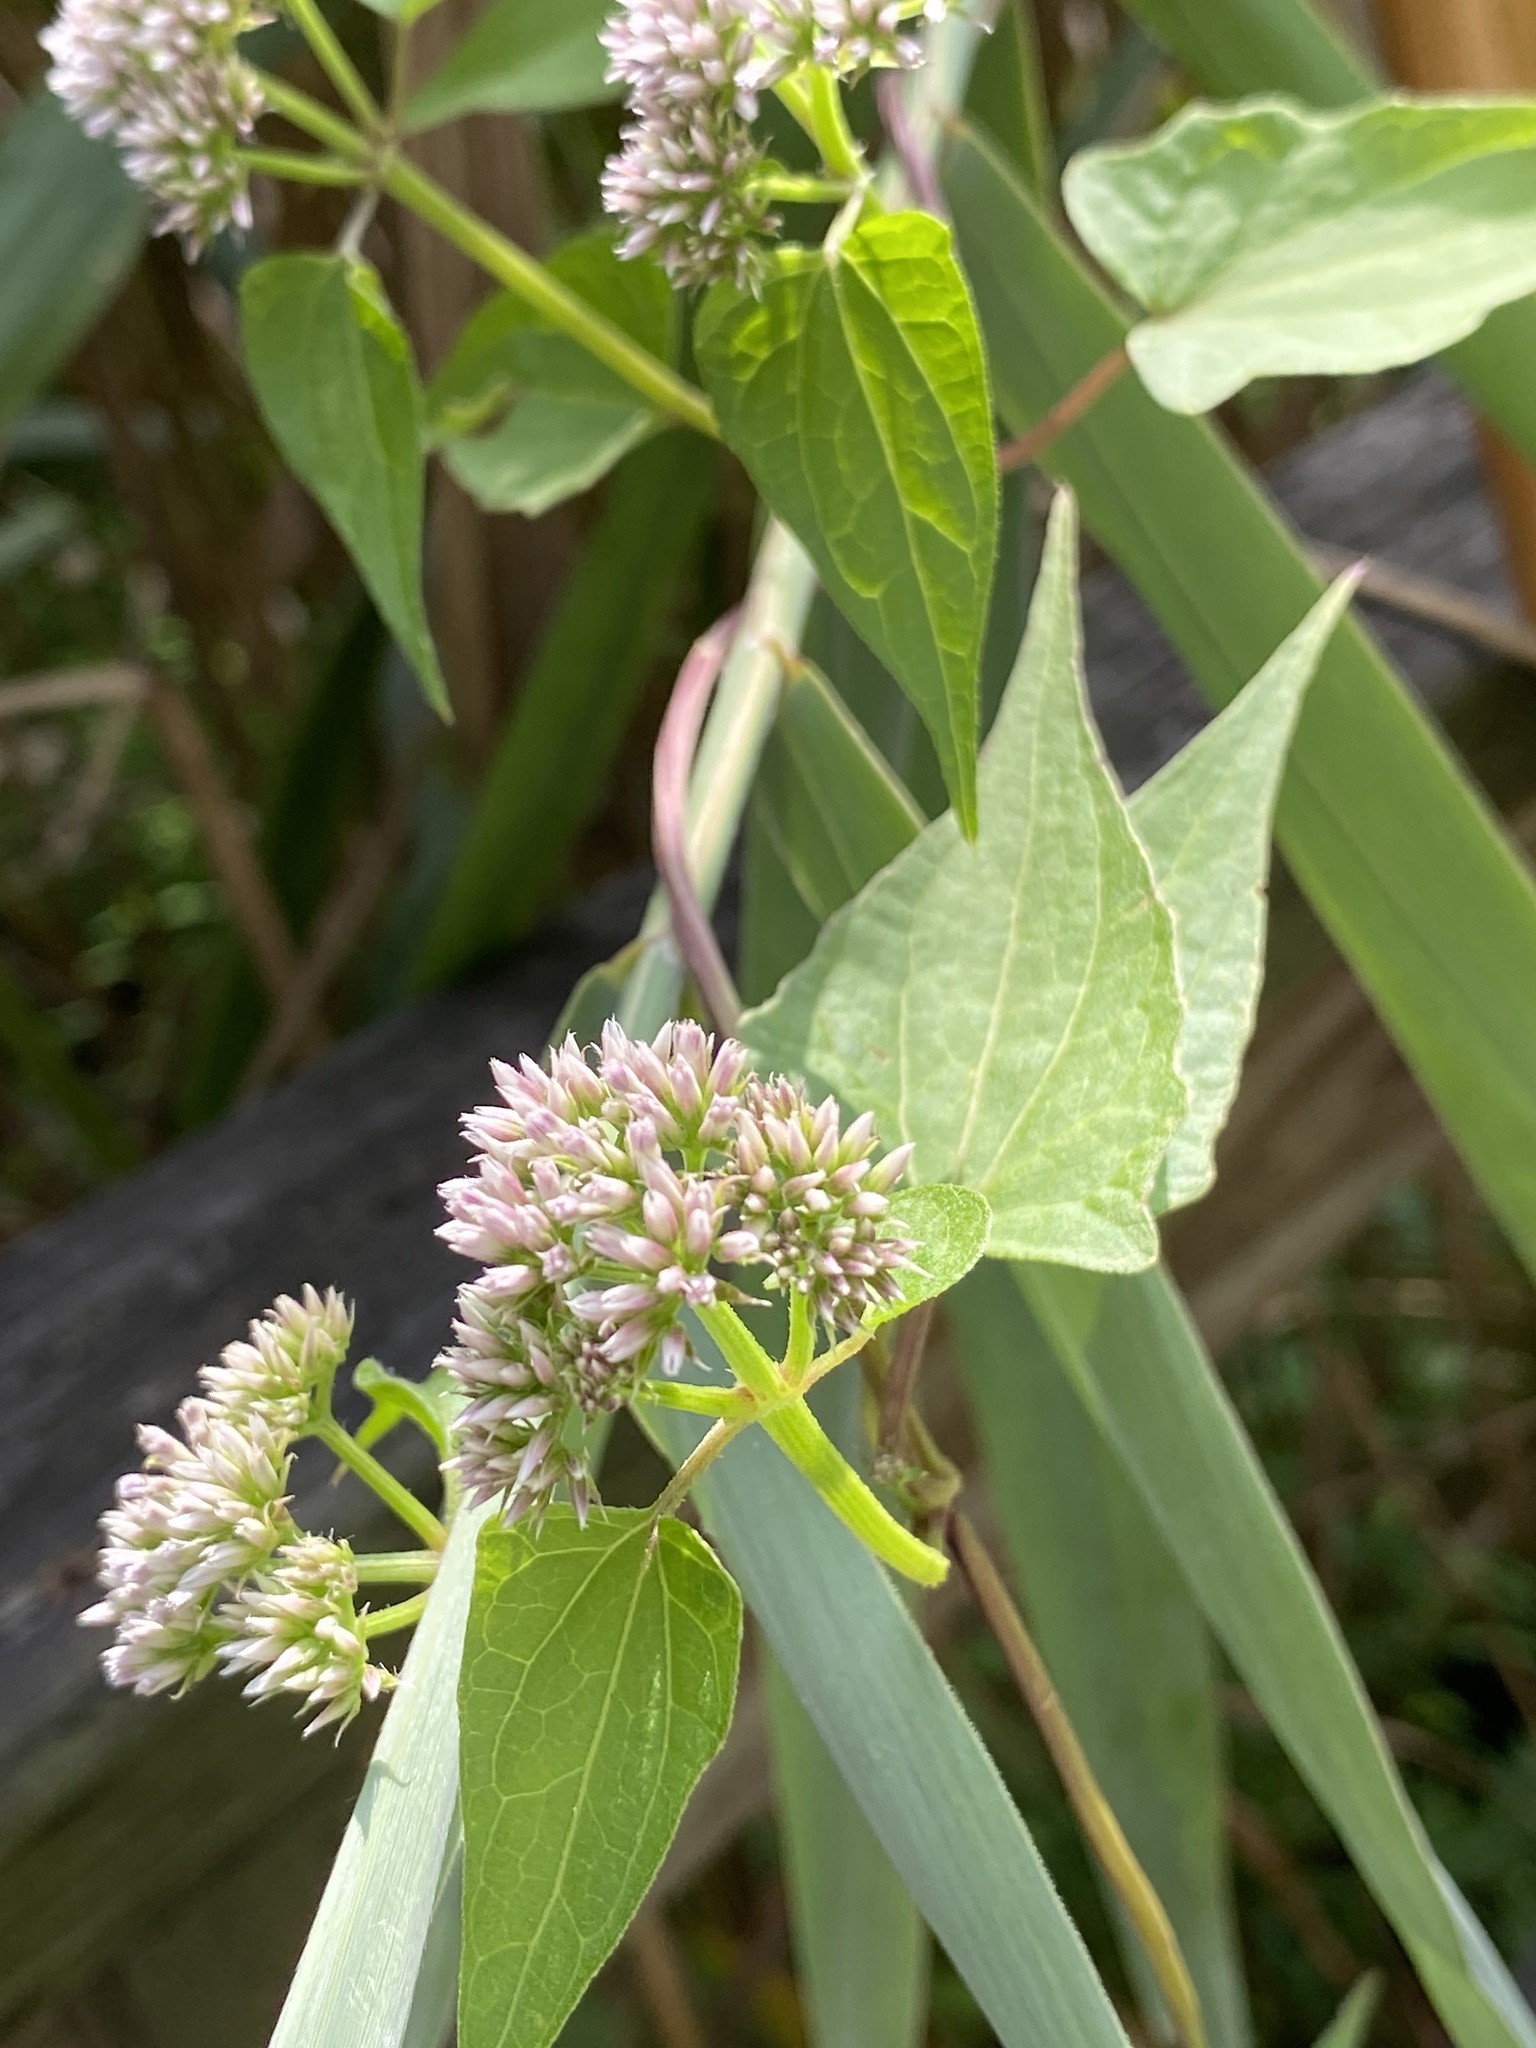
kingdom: Plantae
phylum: Tracheophyta
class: Magnoliopsida
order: Asterales
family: Asteraceae
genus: Mikania
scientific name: Mikania scandens
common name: Climbing hempvine
